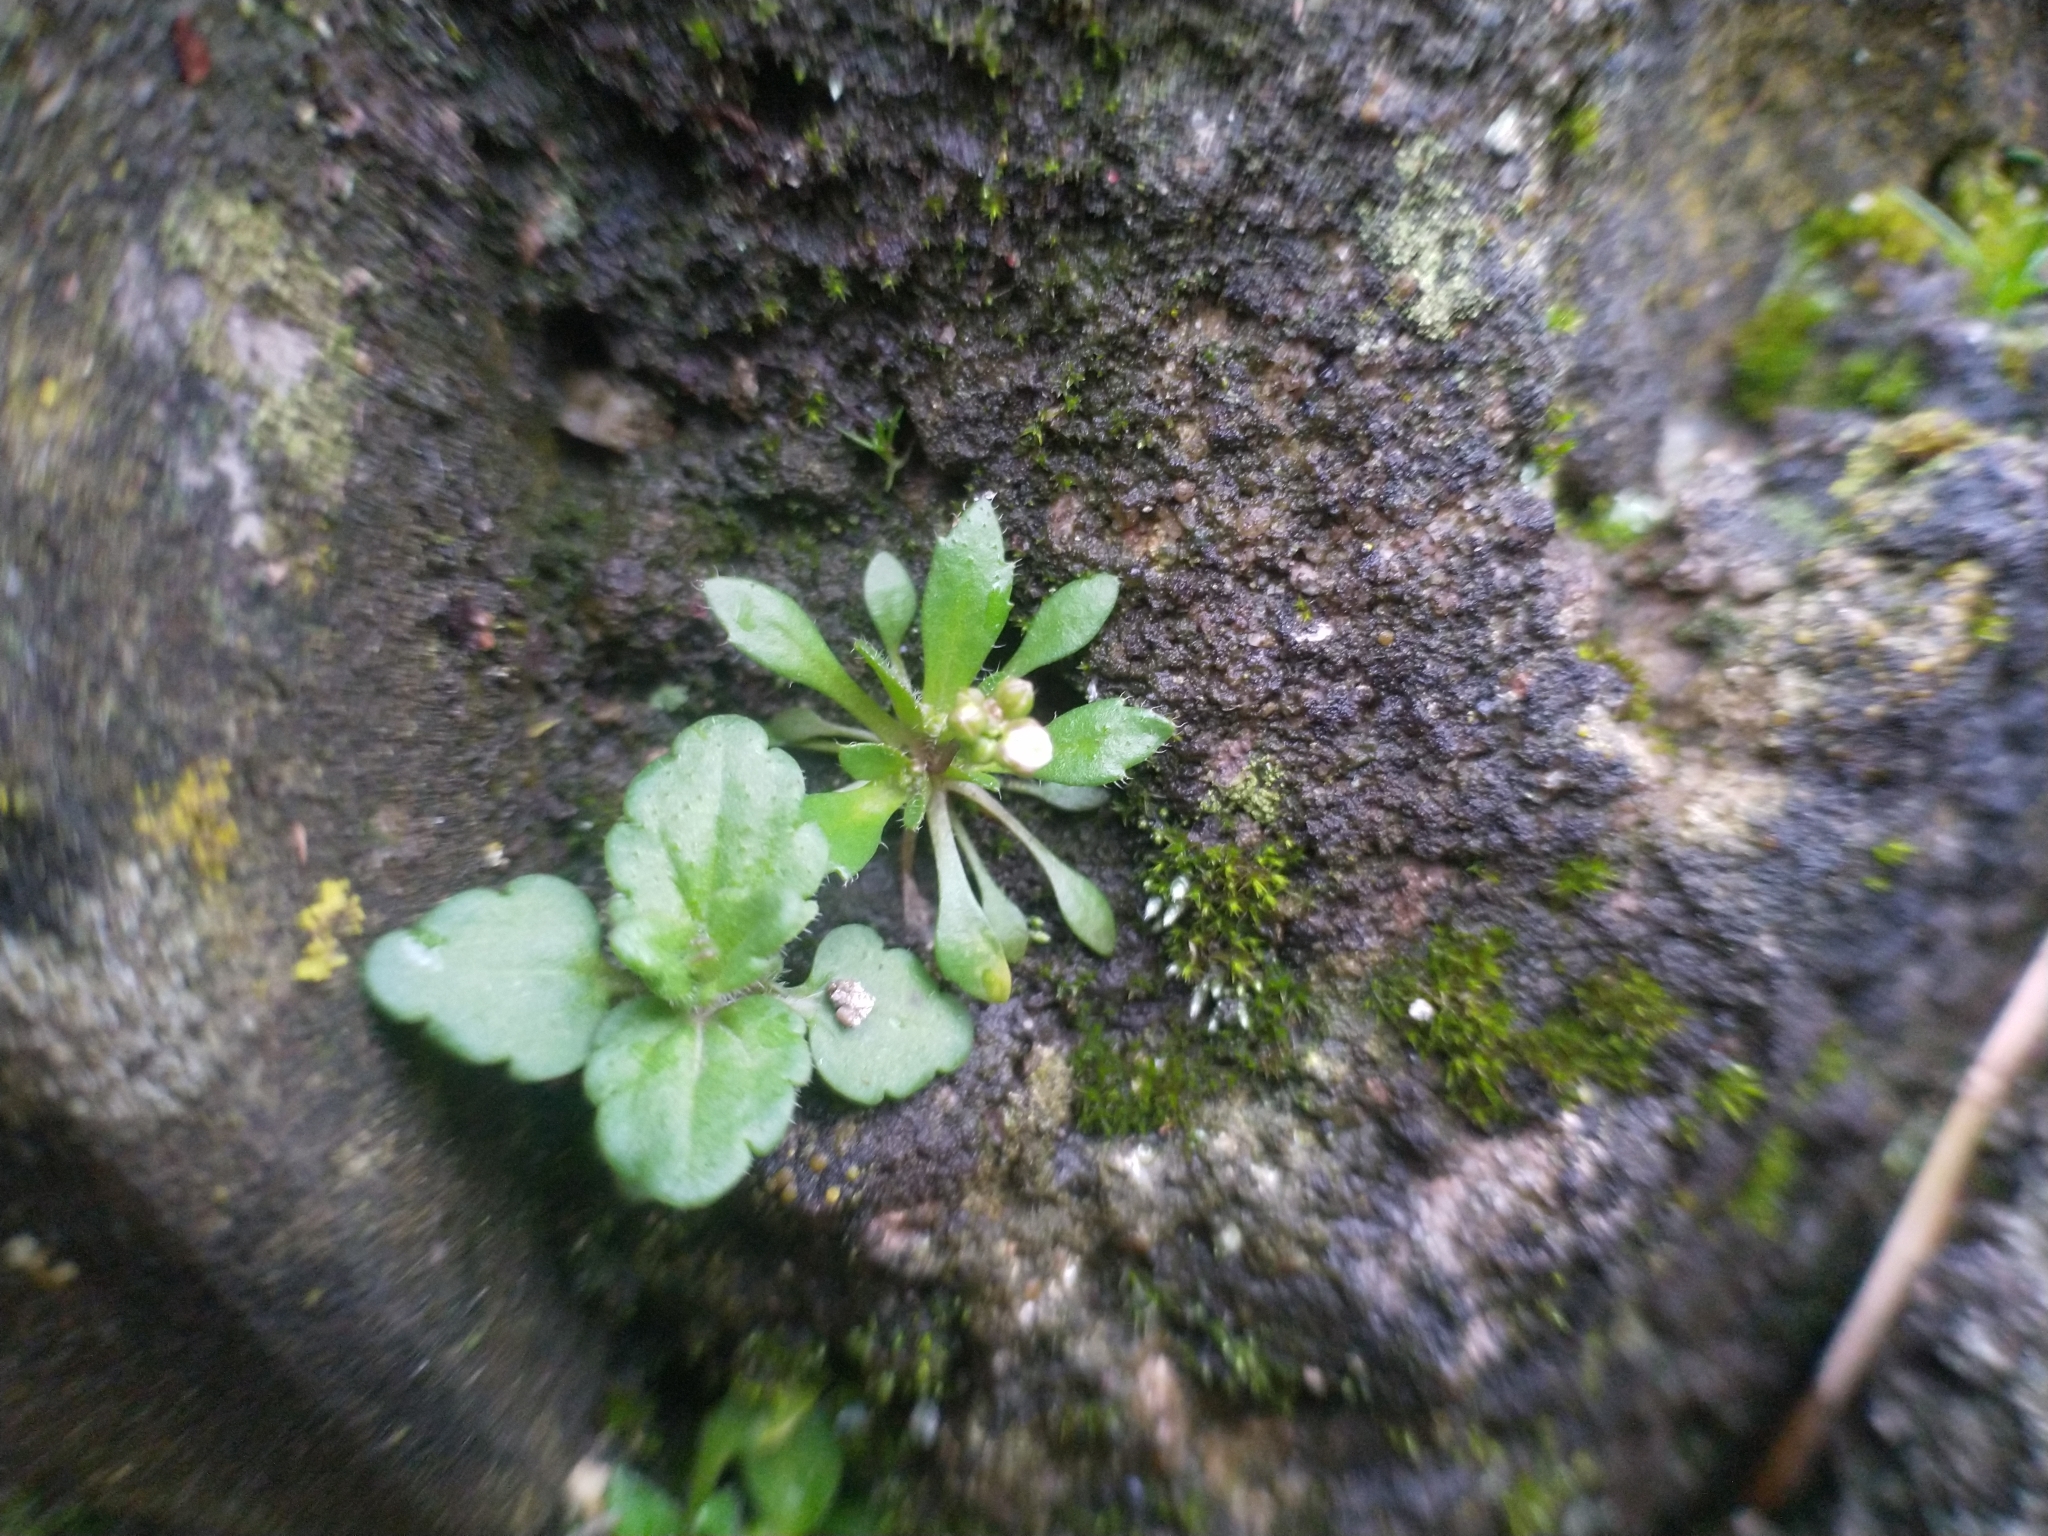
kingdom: Plantae
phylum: Tracheophyta
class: Magnoliopsida
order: Brassicales
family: Brassicaceae
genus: Draba
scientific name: Draba verna
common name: Spring draba
